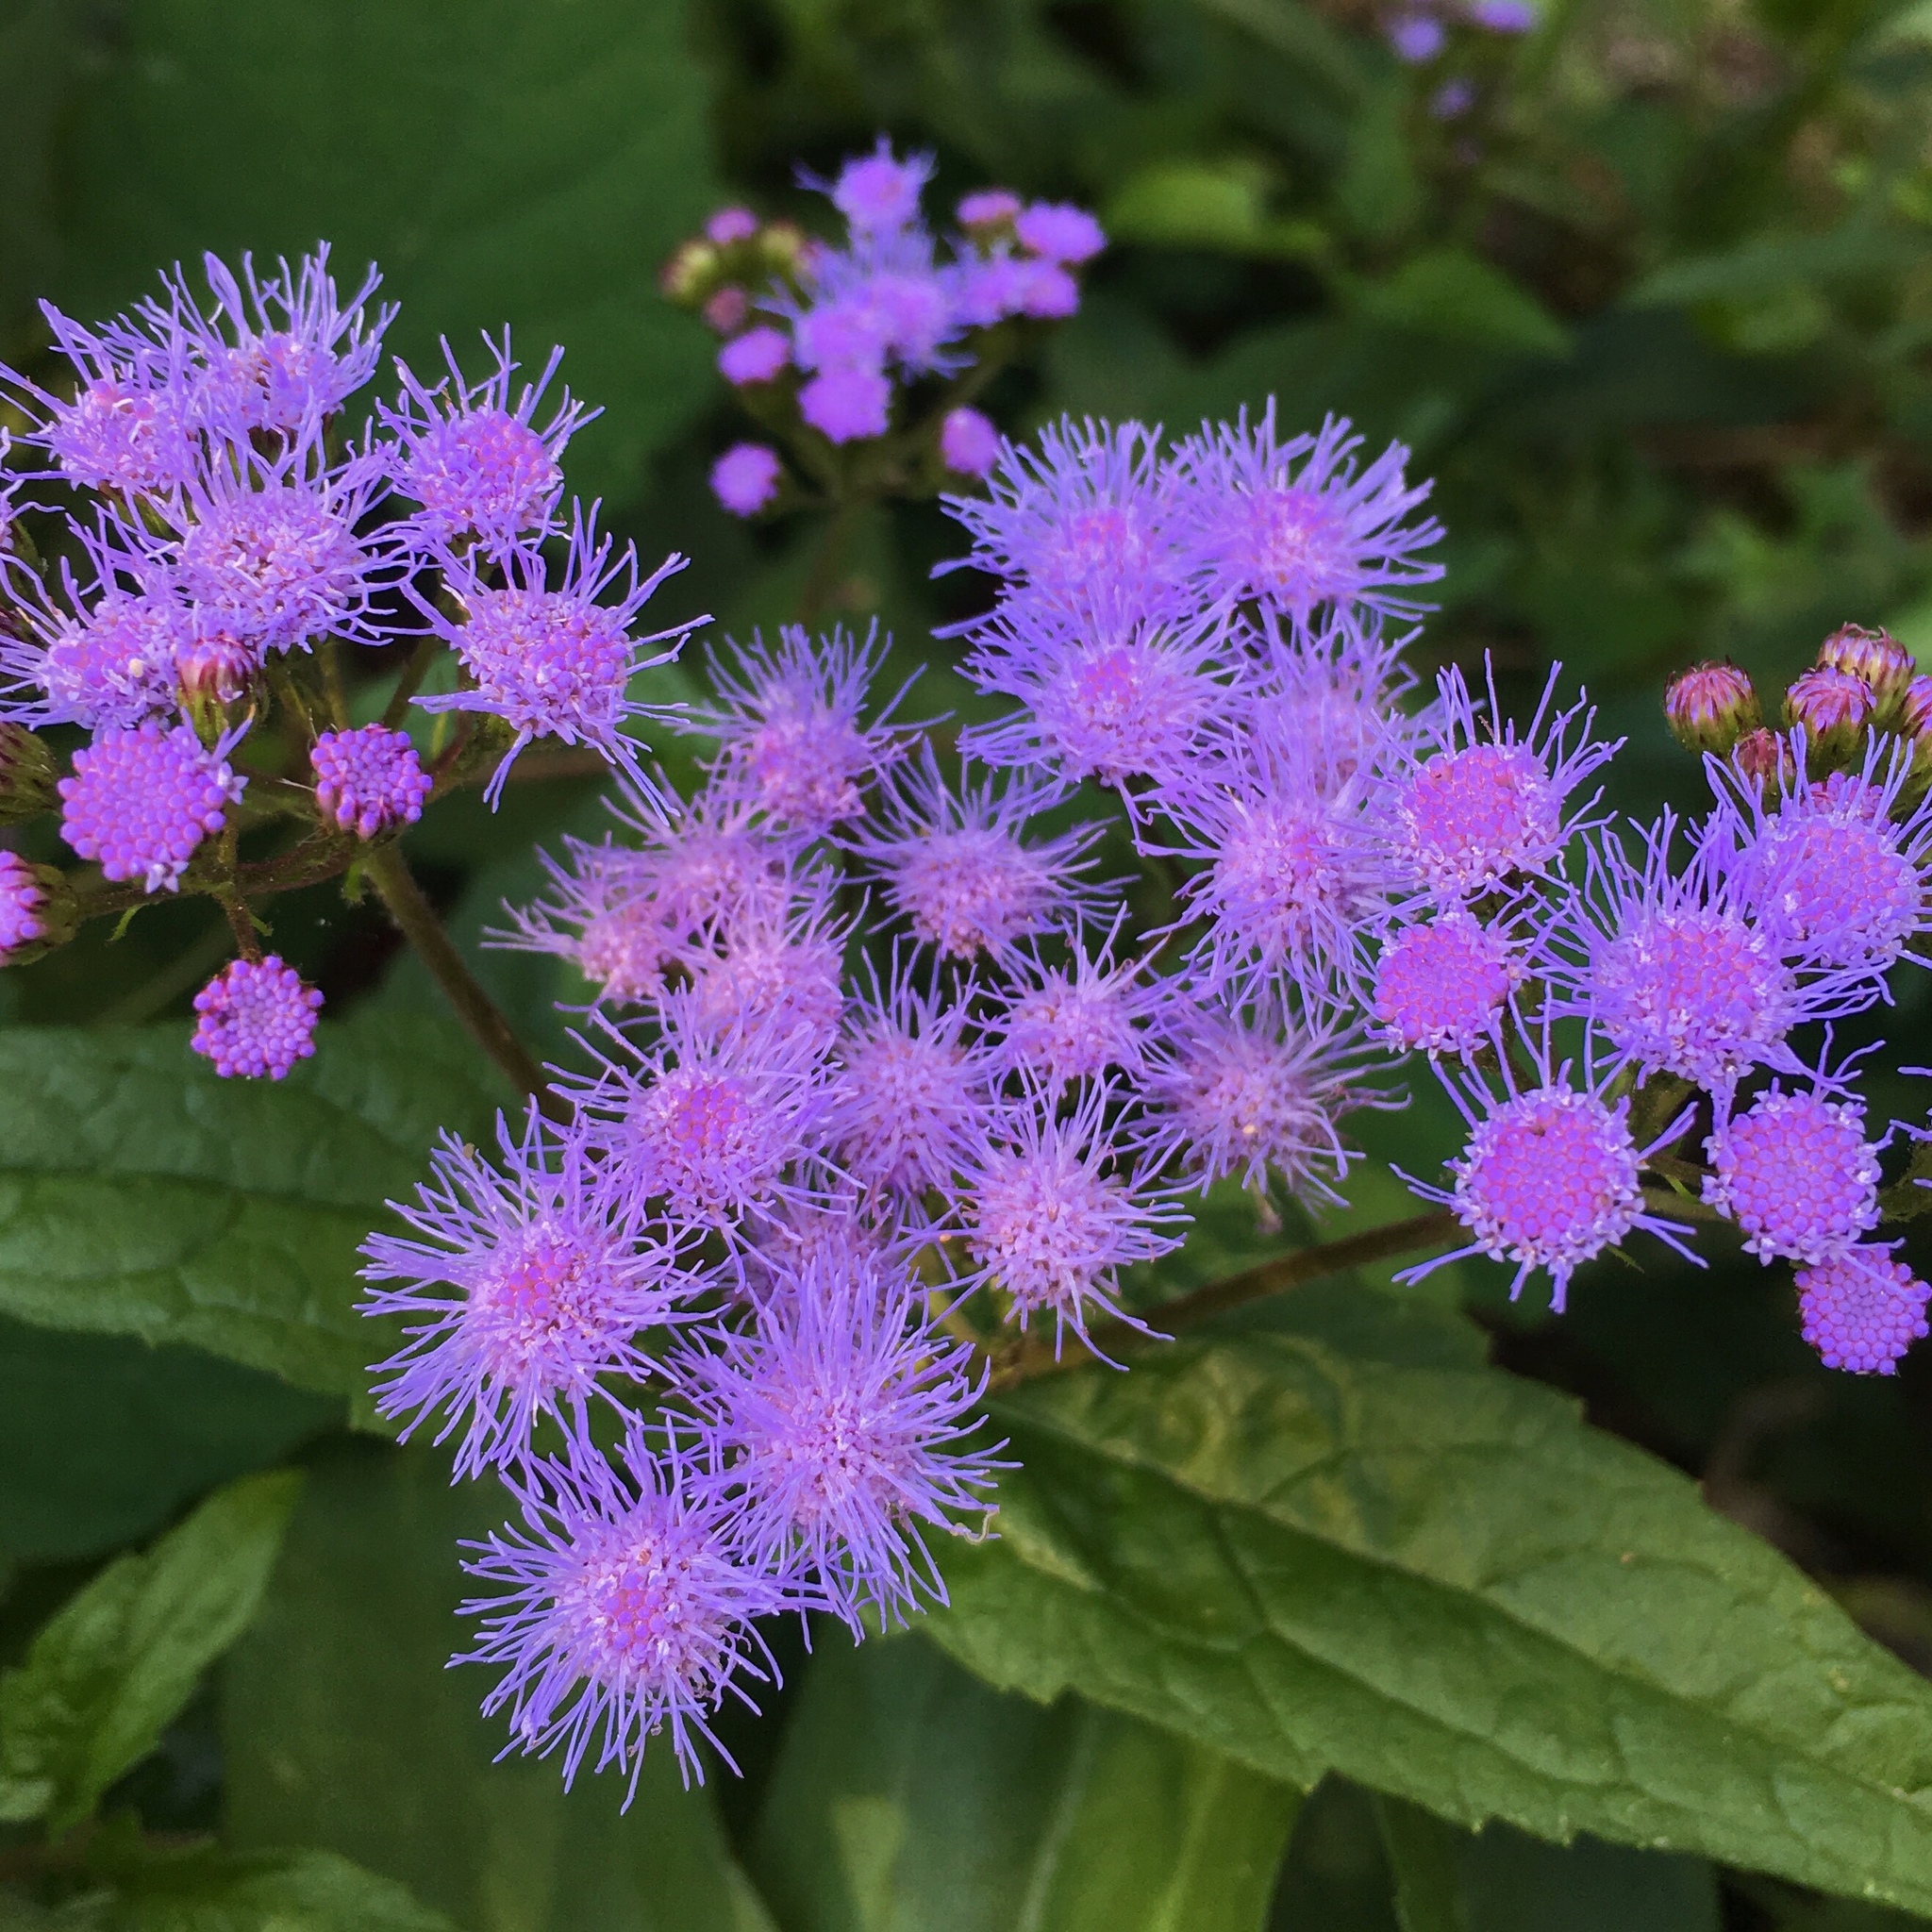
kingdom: Plantae
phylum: Tracheophyta
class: Magnoliopsida
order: Asterales
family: Asteraceae
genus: Conoclinium
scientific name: Conoclinium coelestinum
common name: Blue mistflower
